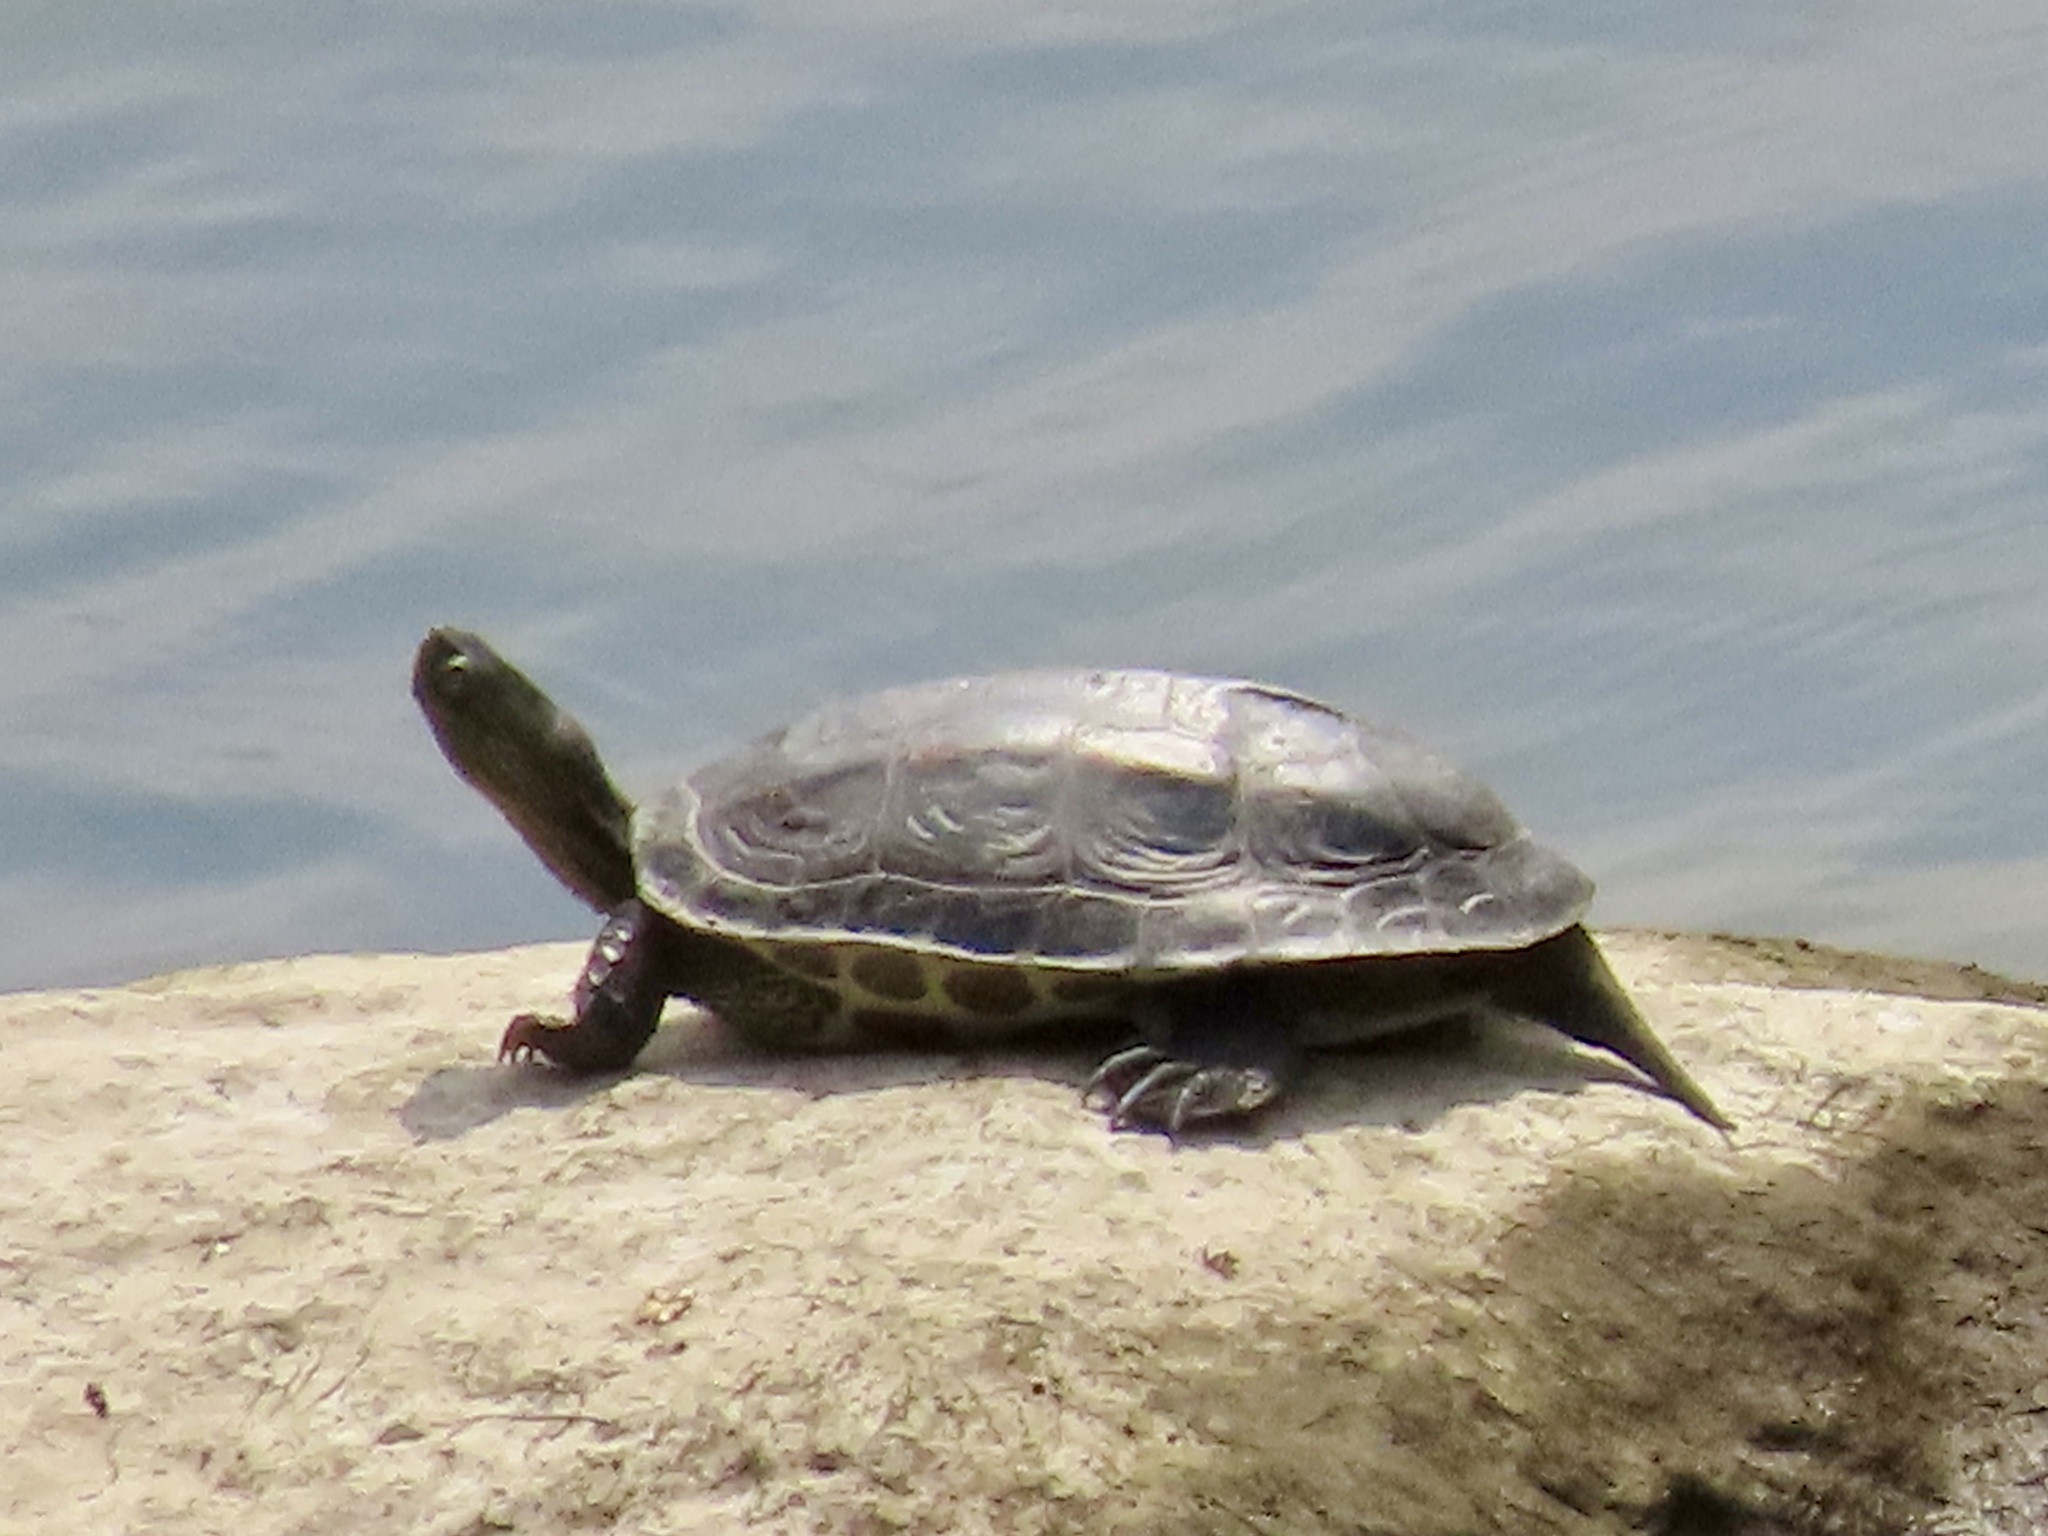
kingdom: Animalia
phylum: Chordata
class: Testudines
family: Geoemydidae
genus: Mauremys
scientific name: Mauremys sinensis
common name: Chinese stripe-necked turtle
